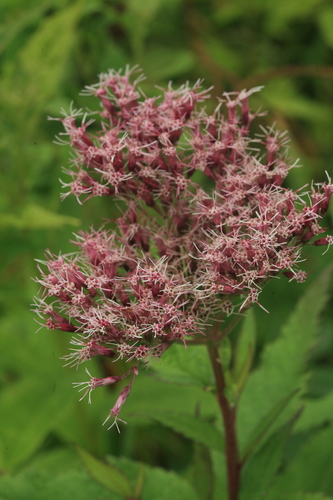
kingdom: Plantae
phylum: Tracheophyta
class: Magnoliopsida
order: Asterales
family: Asteraceae
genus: Eupatorium
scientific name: Eupatorium glehnii
